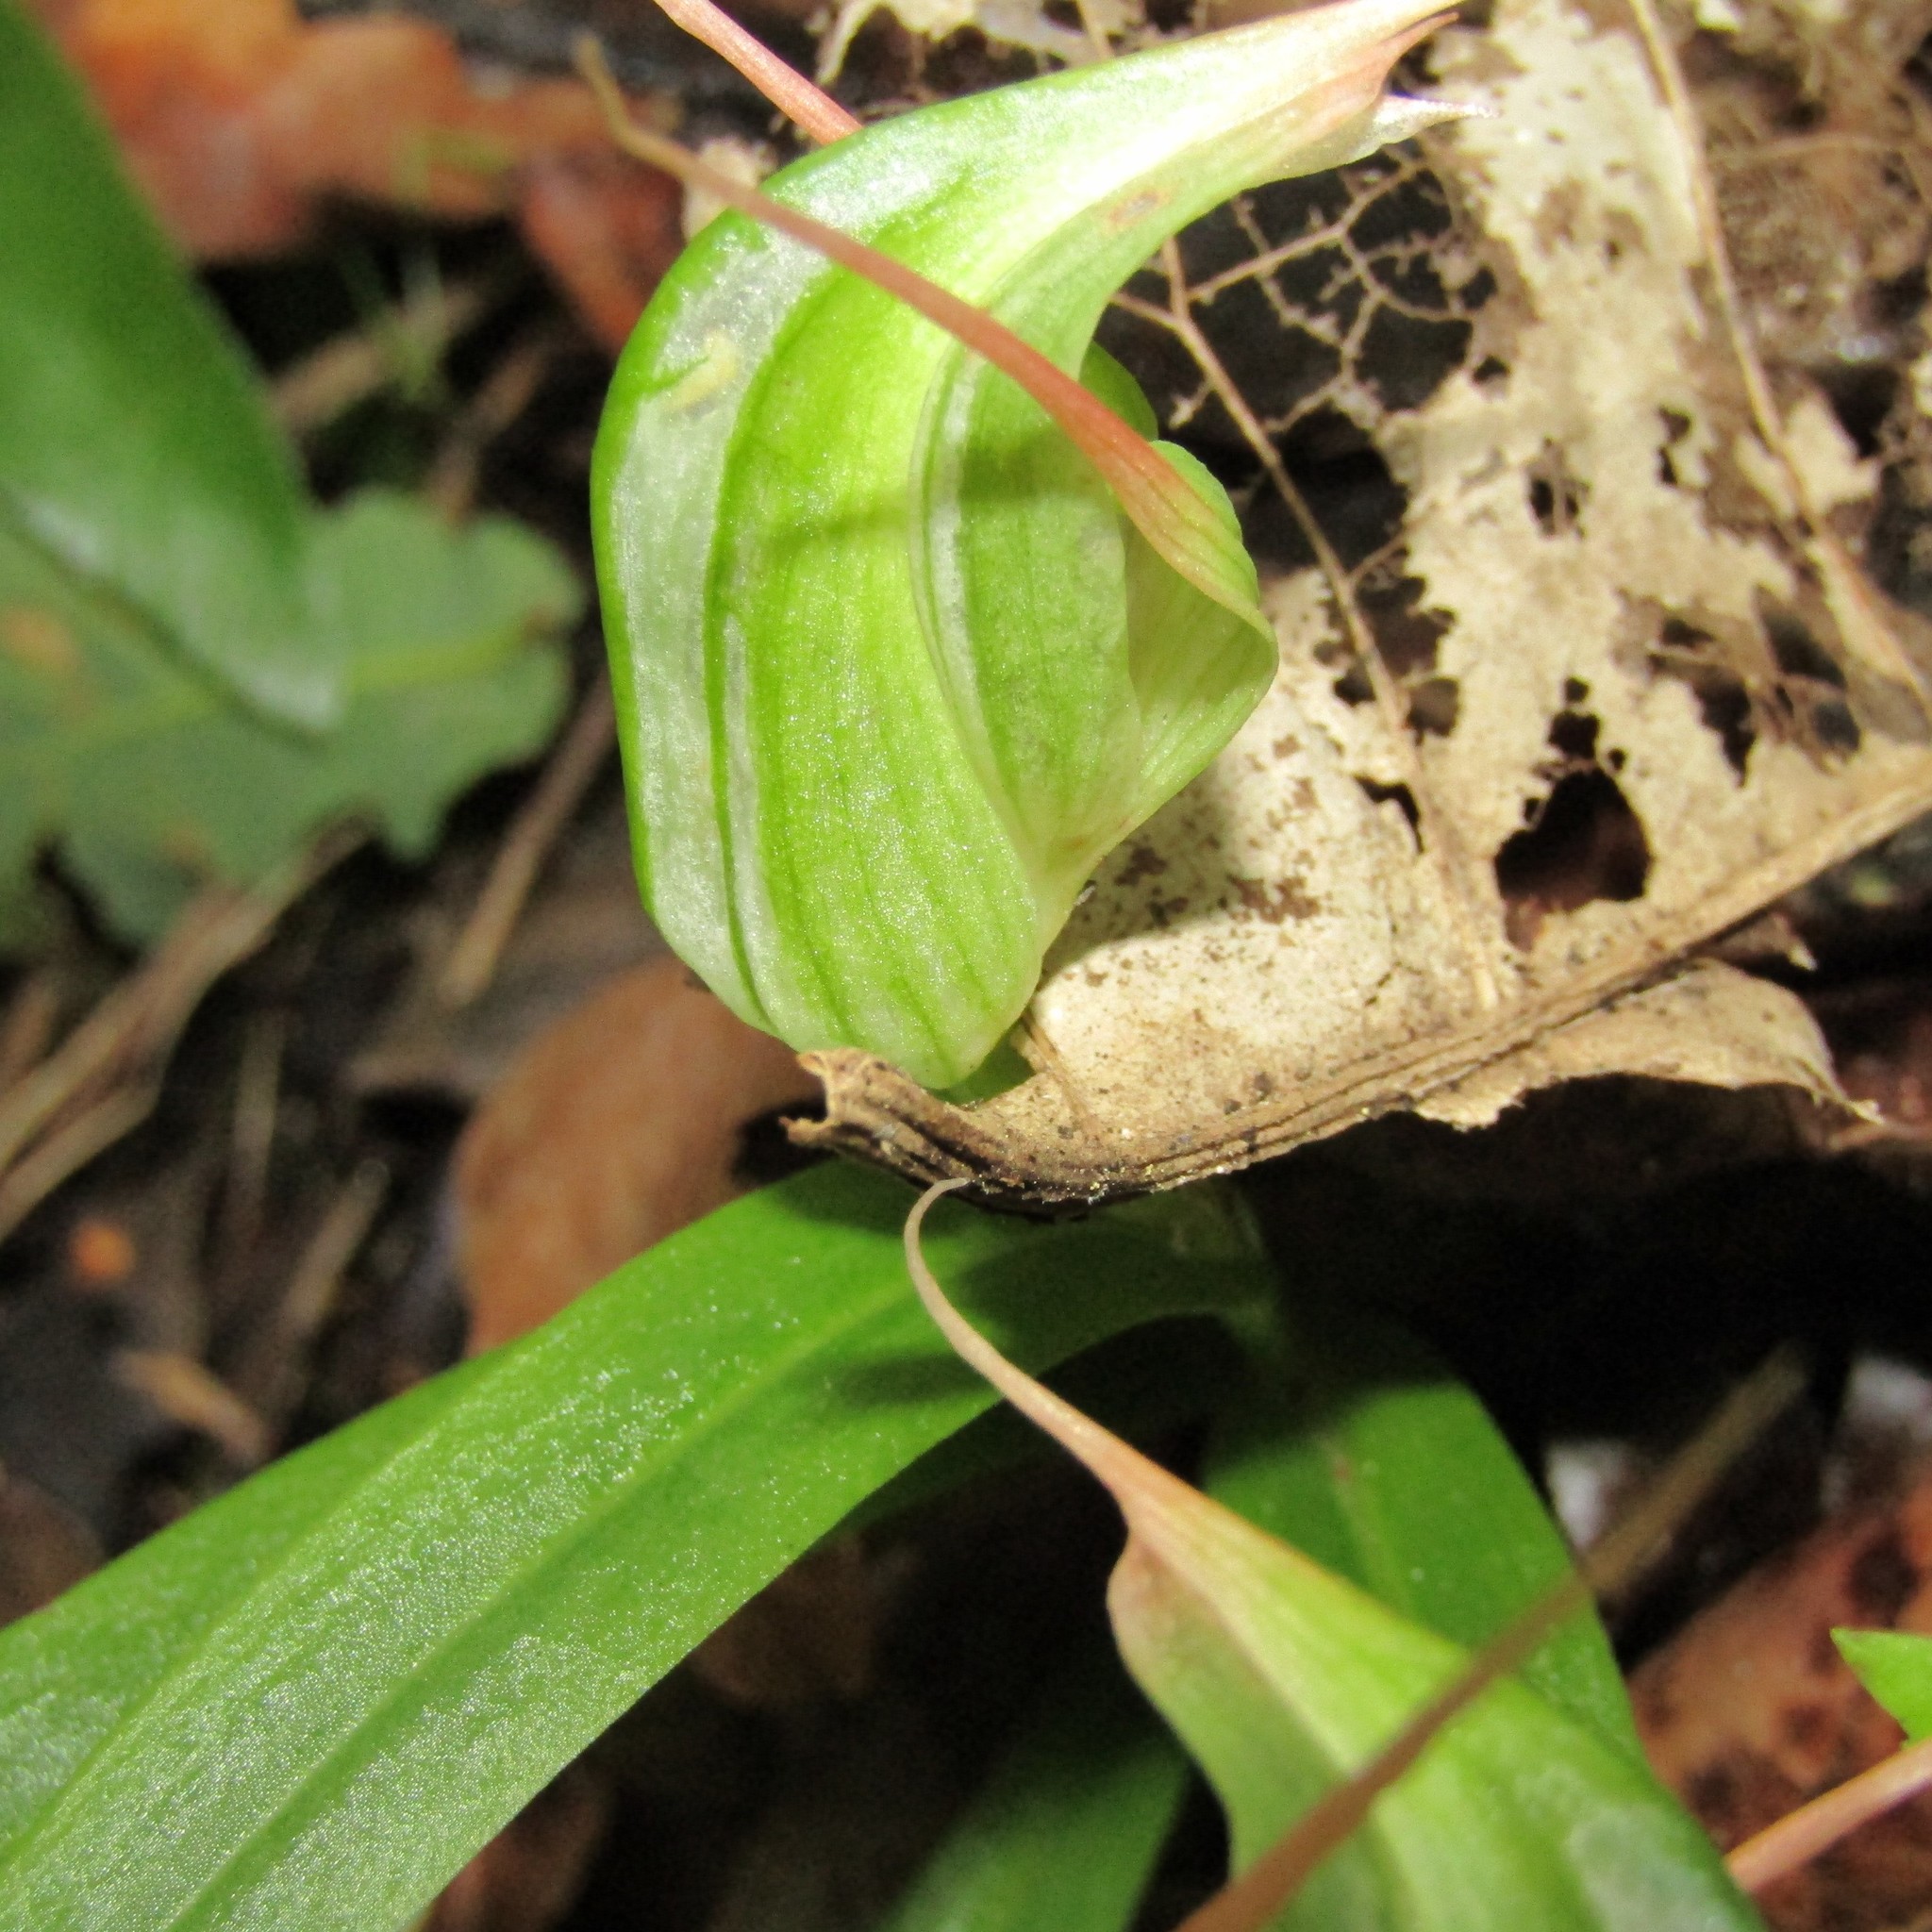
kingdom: Plantae
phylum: Tracheophyta
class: Liliopsida
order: Asparagales
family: Orchidaceae
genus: Pterostylis
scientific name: Pterostylis banksii
